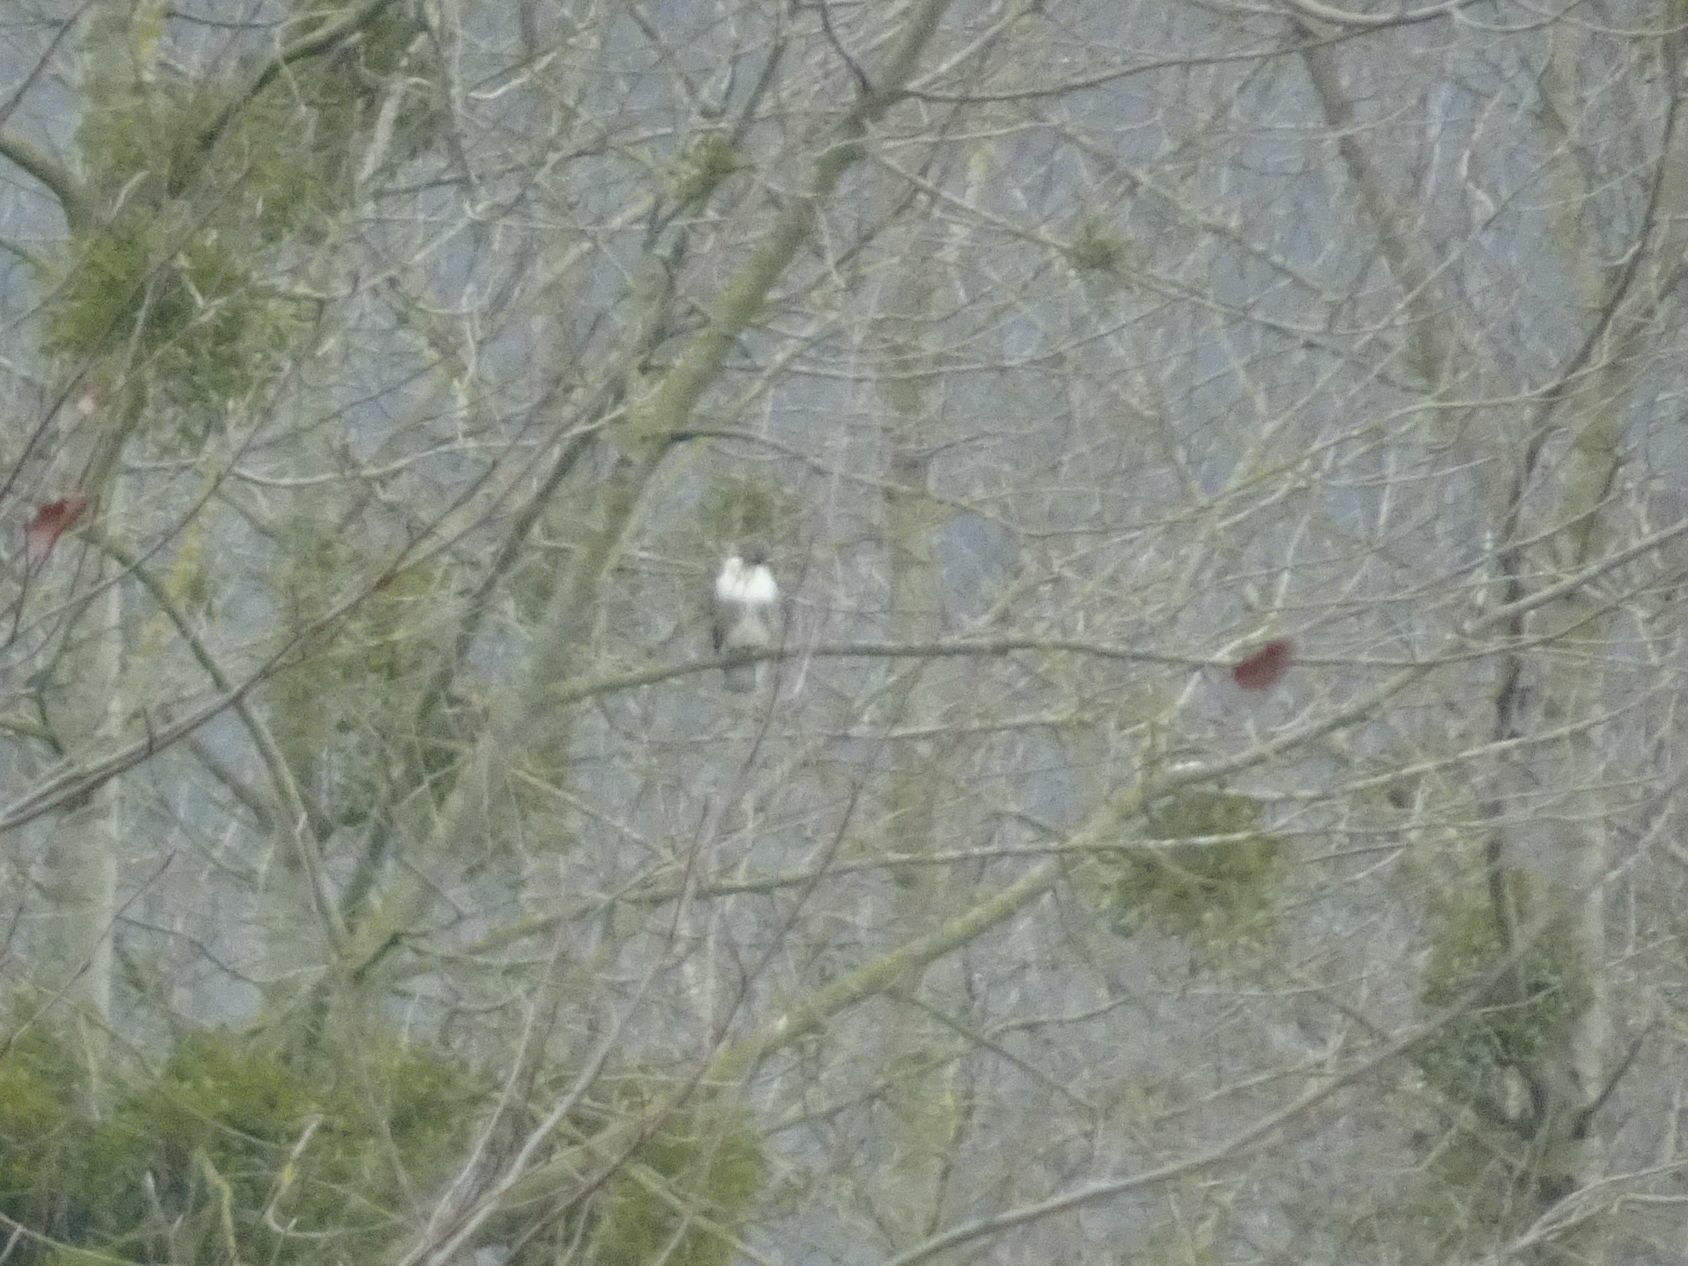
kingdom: Animalia
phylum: Chordata
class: Aves
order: Accipitriformes
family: Accipitridae
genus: Buteo
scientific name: Buteo buteo
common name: Common buzzard
